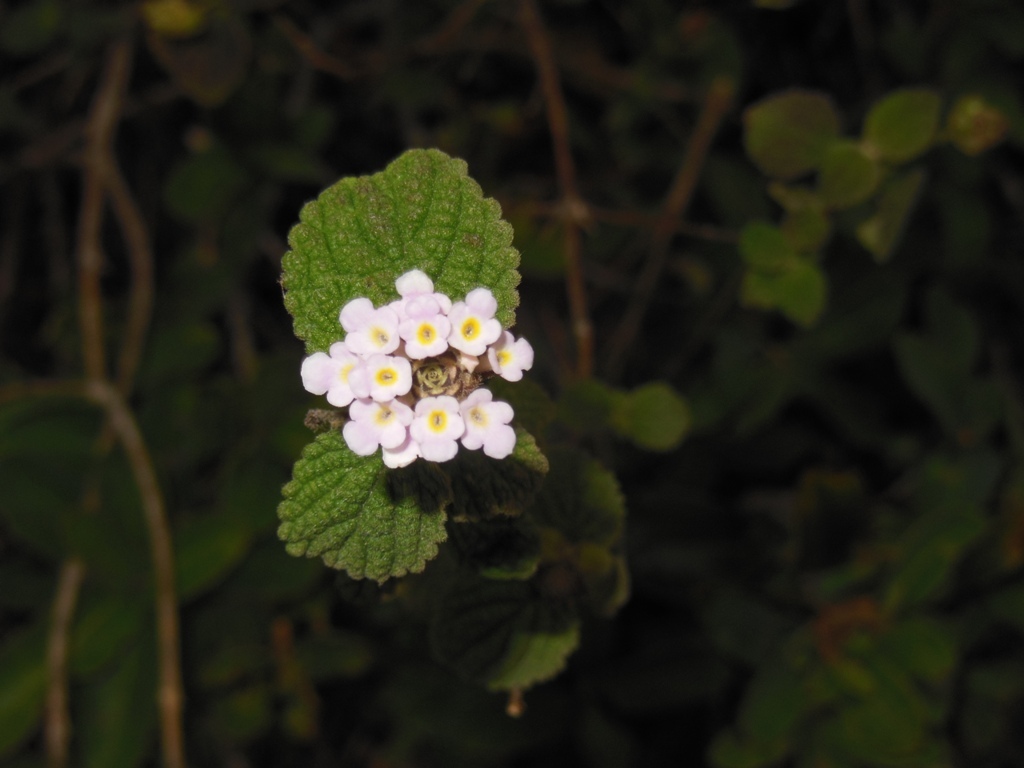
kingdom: Plantae
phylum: Tracheophyta
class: Magnoliopsida
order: Lamiales
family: Verbenaceae
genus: Lantana
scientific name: Lantana velutina
